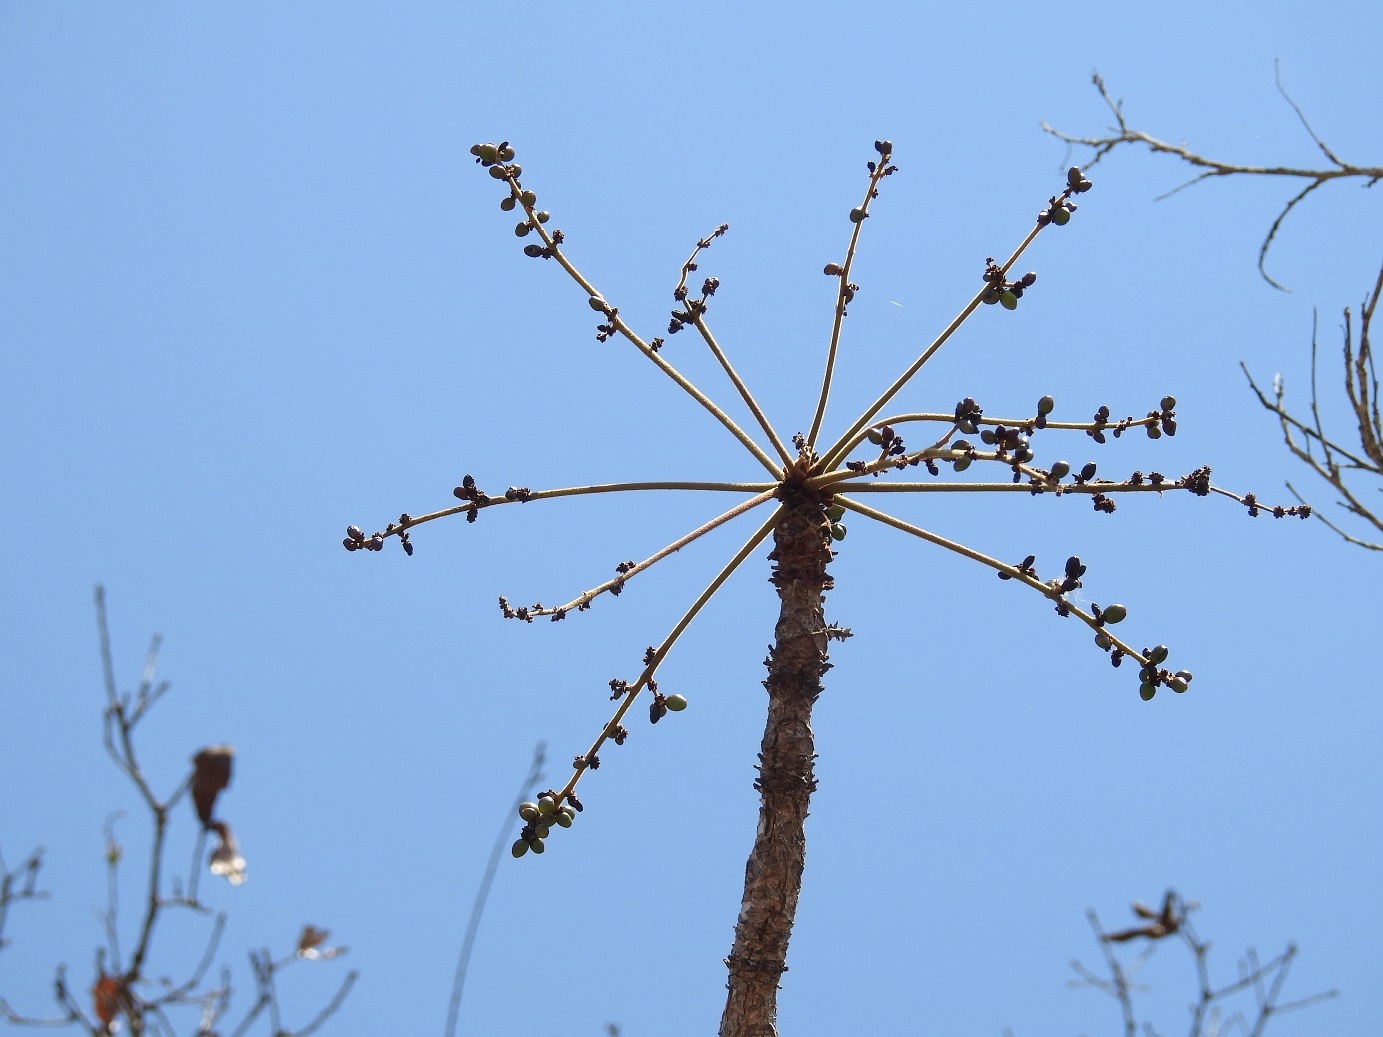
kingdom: Plantae
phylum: Tracheophyta
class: Magnoliopsida
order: Sapindales
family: Anacardiaceae
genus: Comocladia
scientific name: Comocladia guatemalensis
